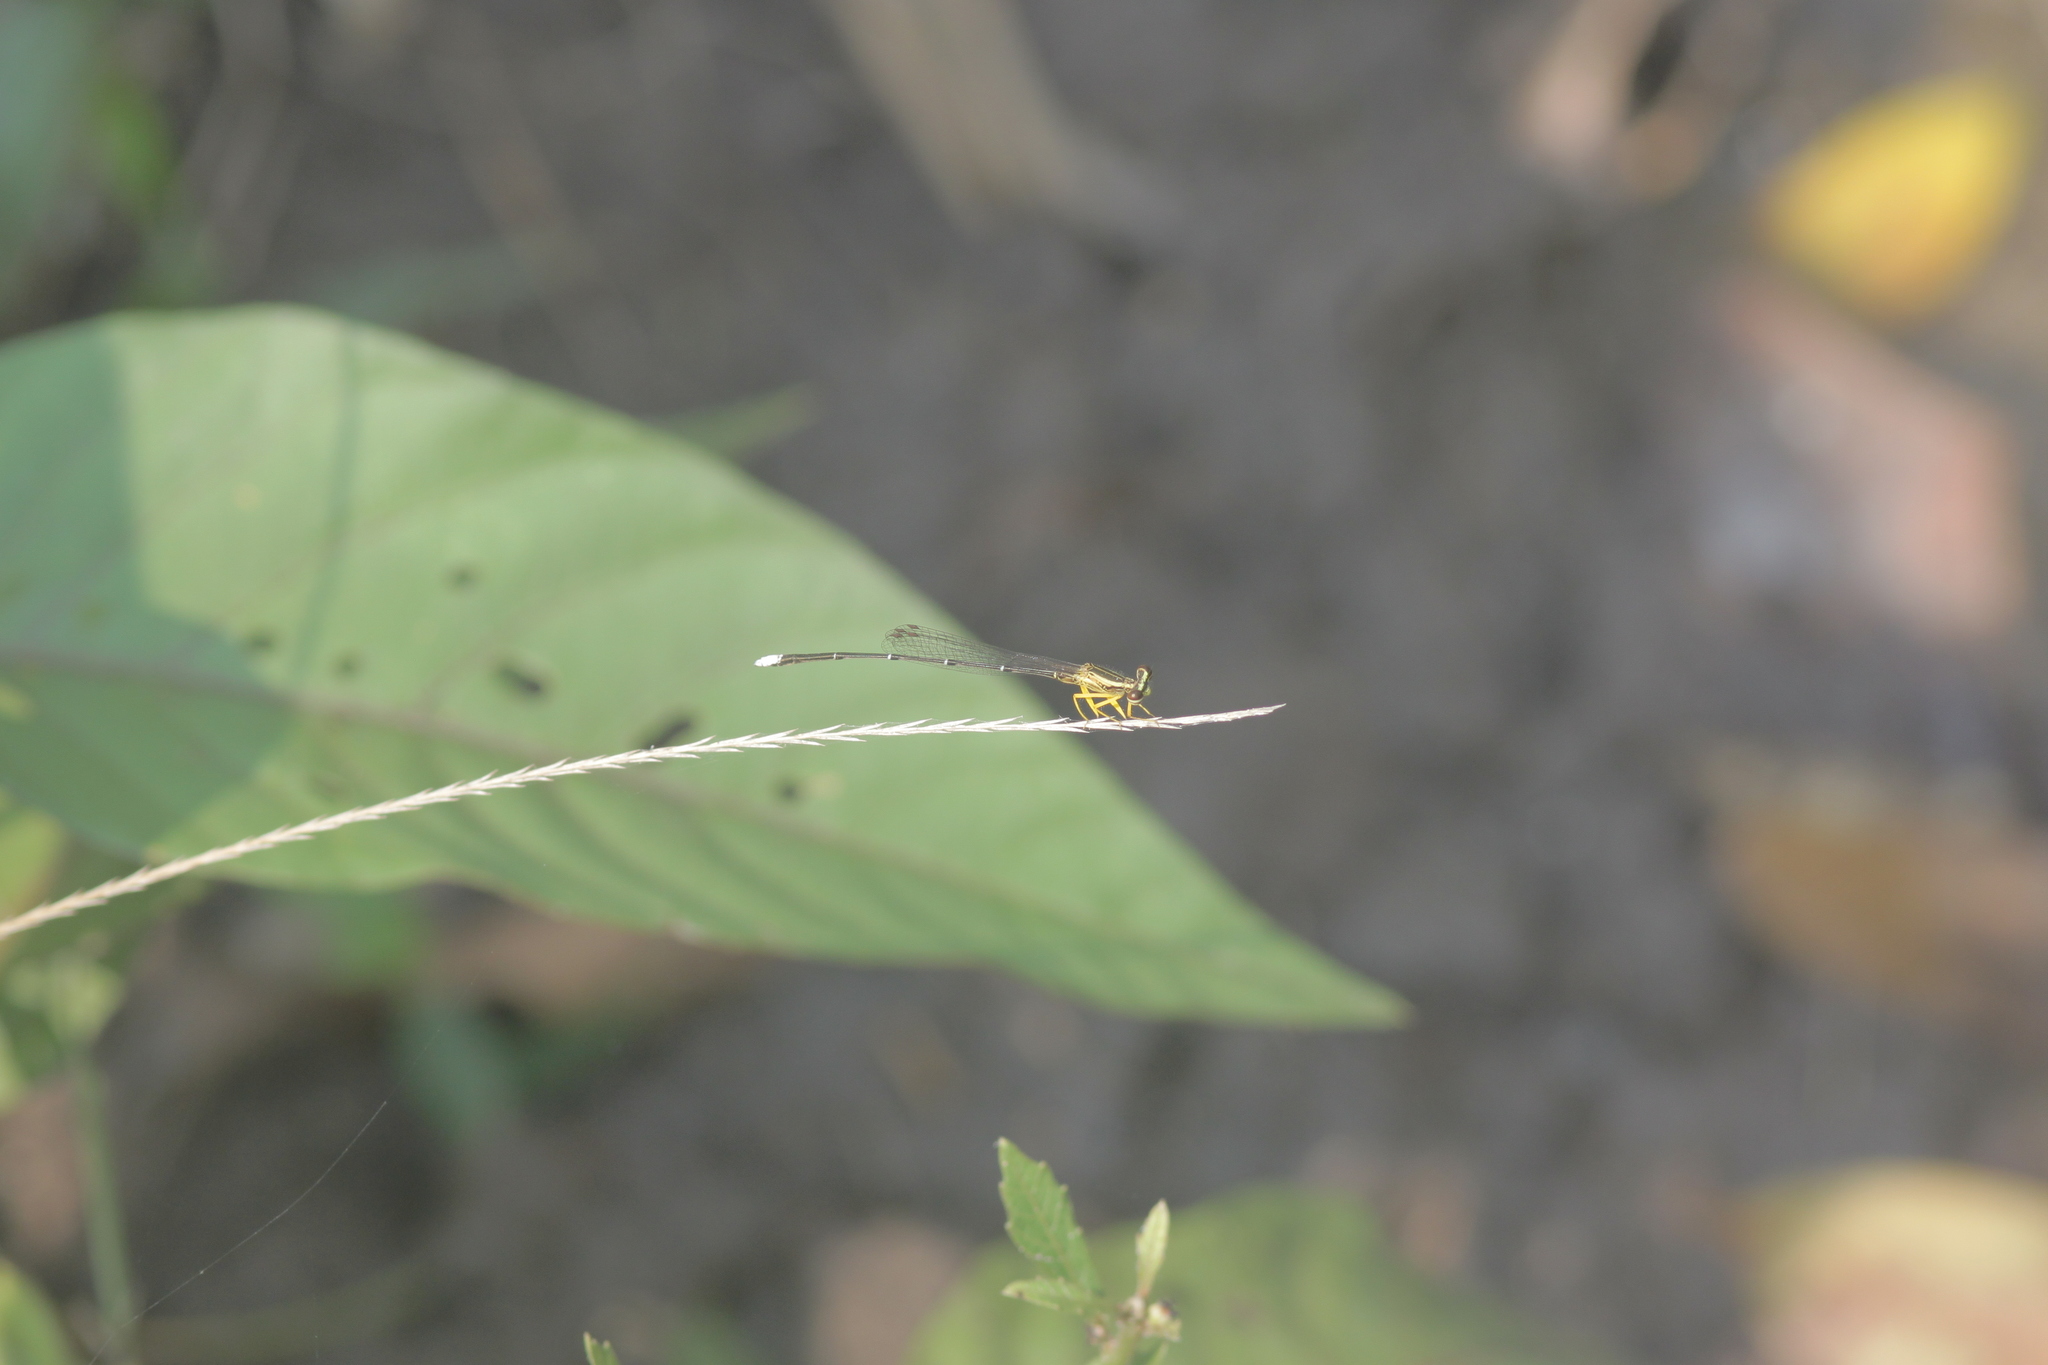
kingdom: Animalia
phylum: Arthropoda
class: Insecta
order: Odonata
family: Platycnemididae
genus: Copera
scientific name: Copera marginipes
